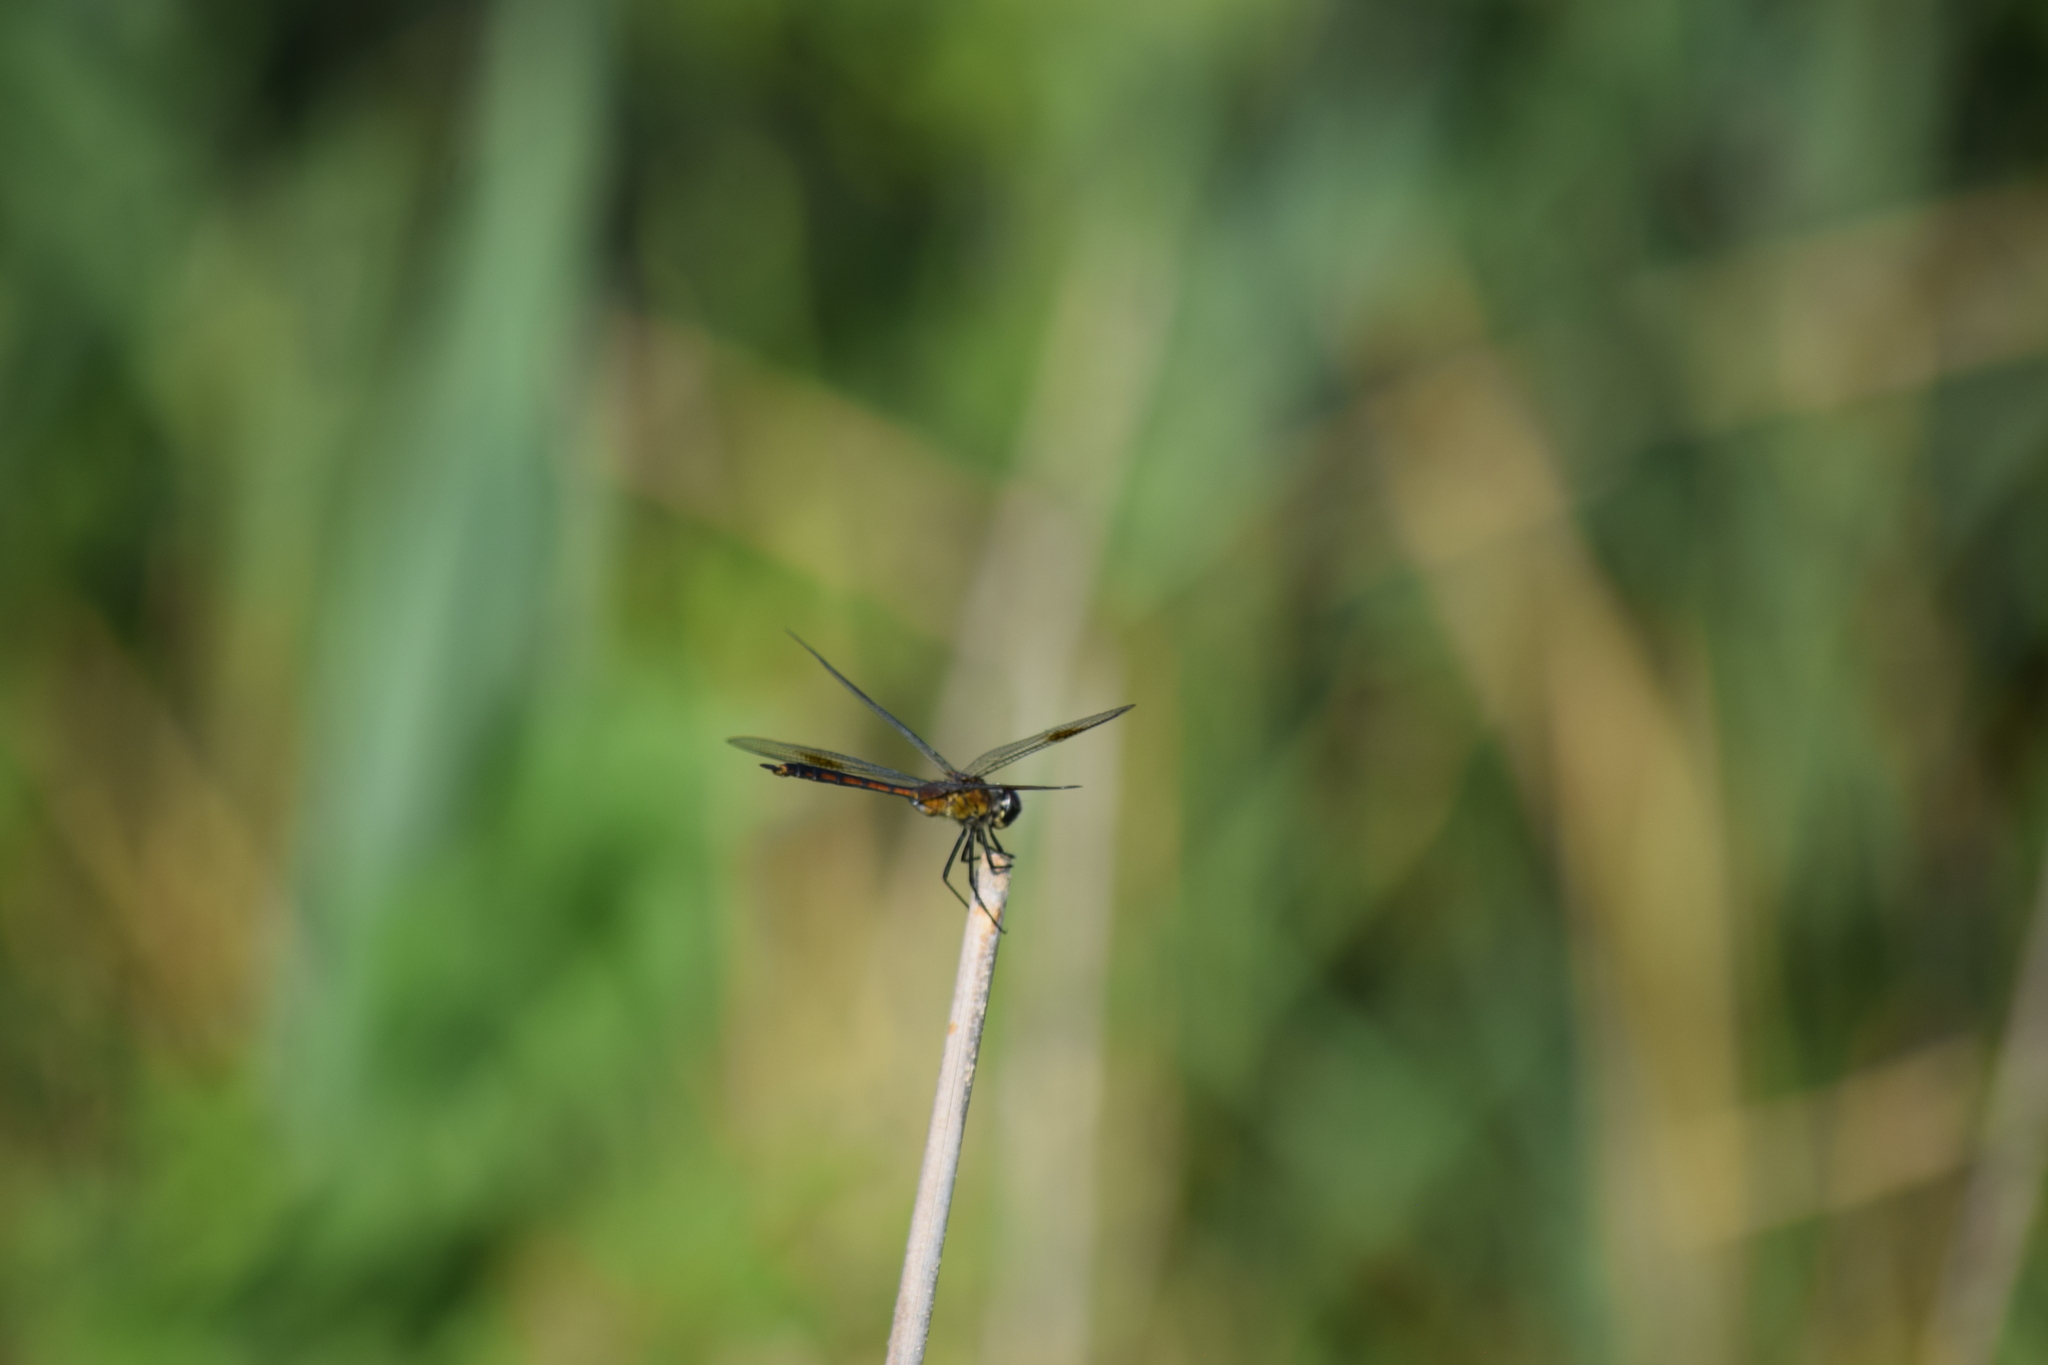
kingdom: Animalia
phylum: Arthropoda
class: Insecta
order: Odonata
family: Libellulidae
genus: Brachymesia
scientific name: Brachymesia gravida
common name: Four-spotted pennant
